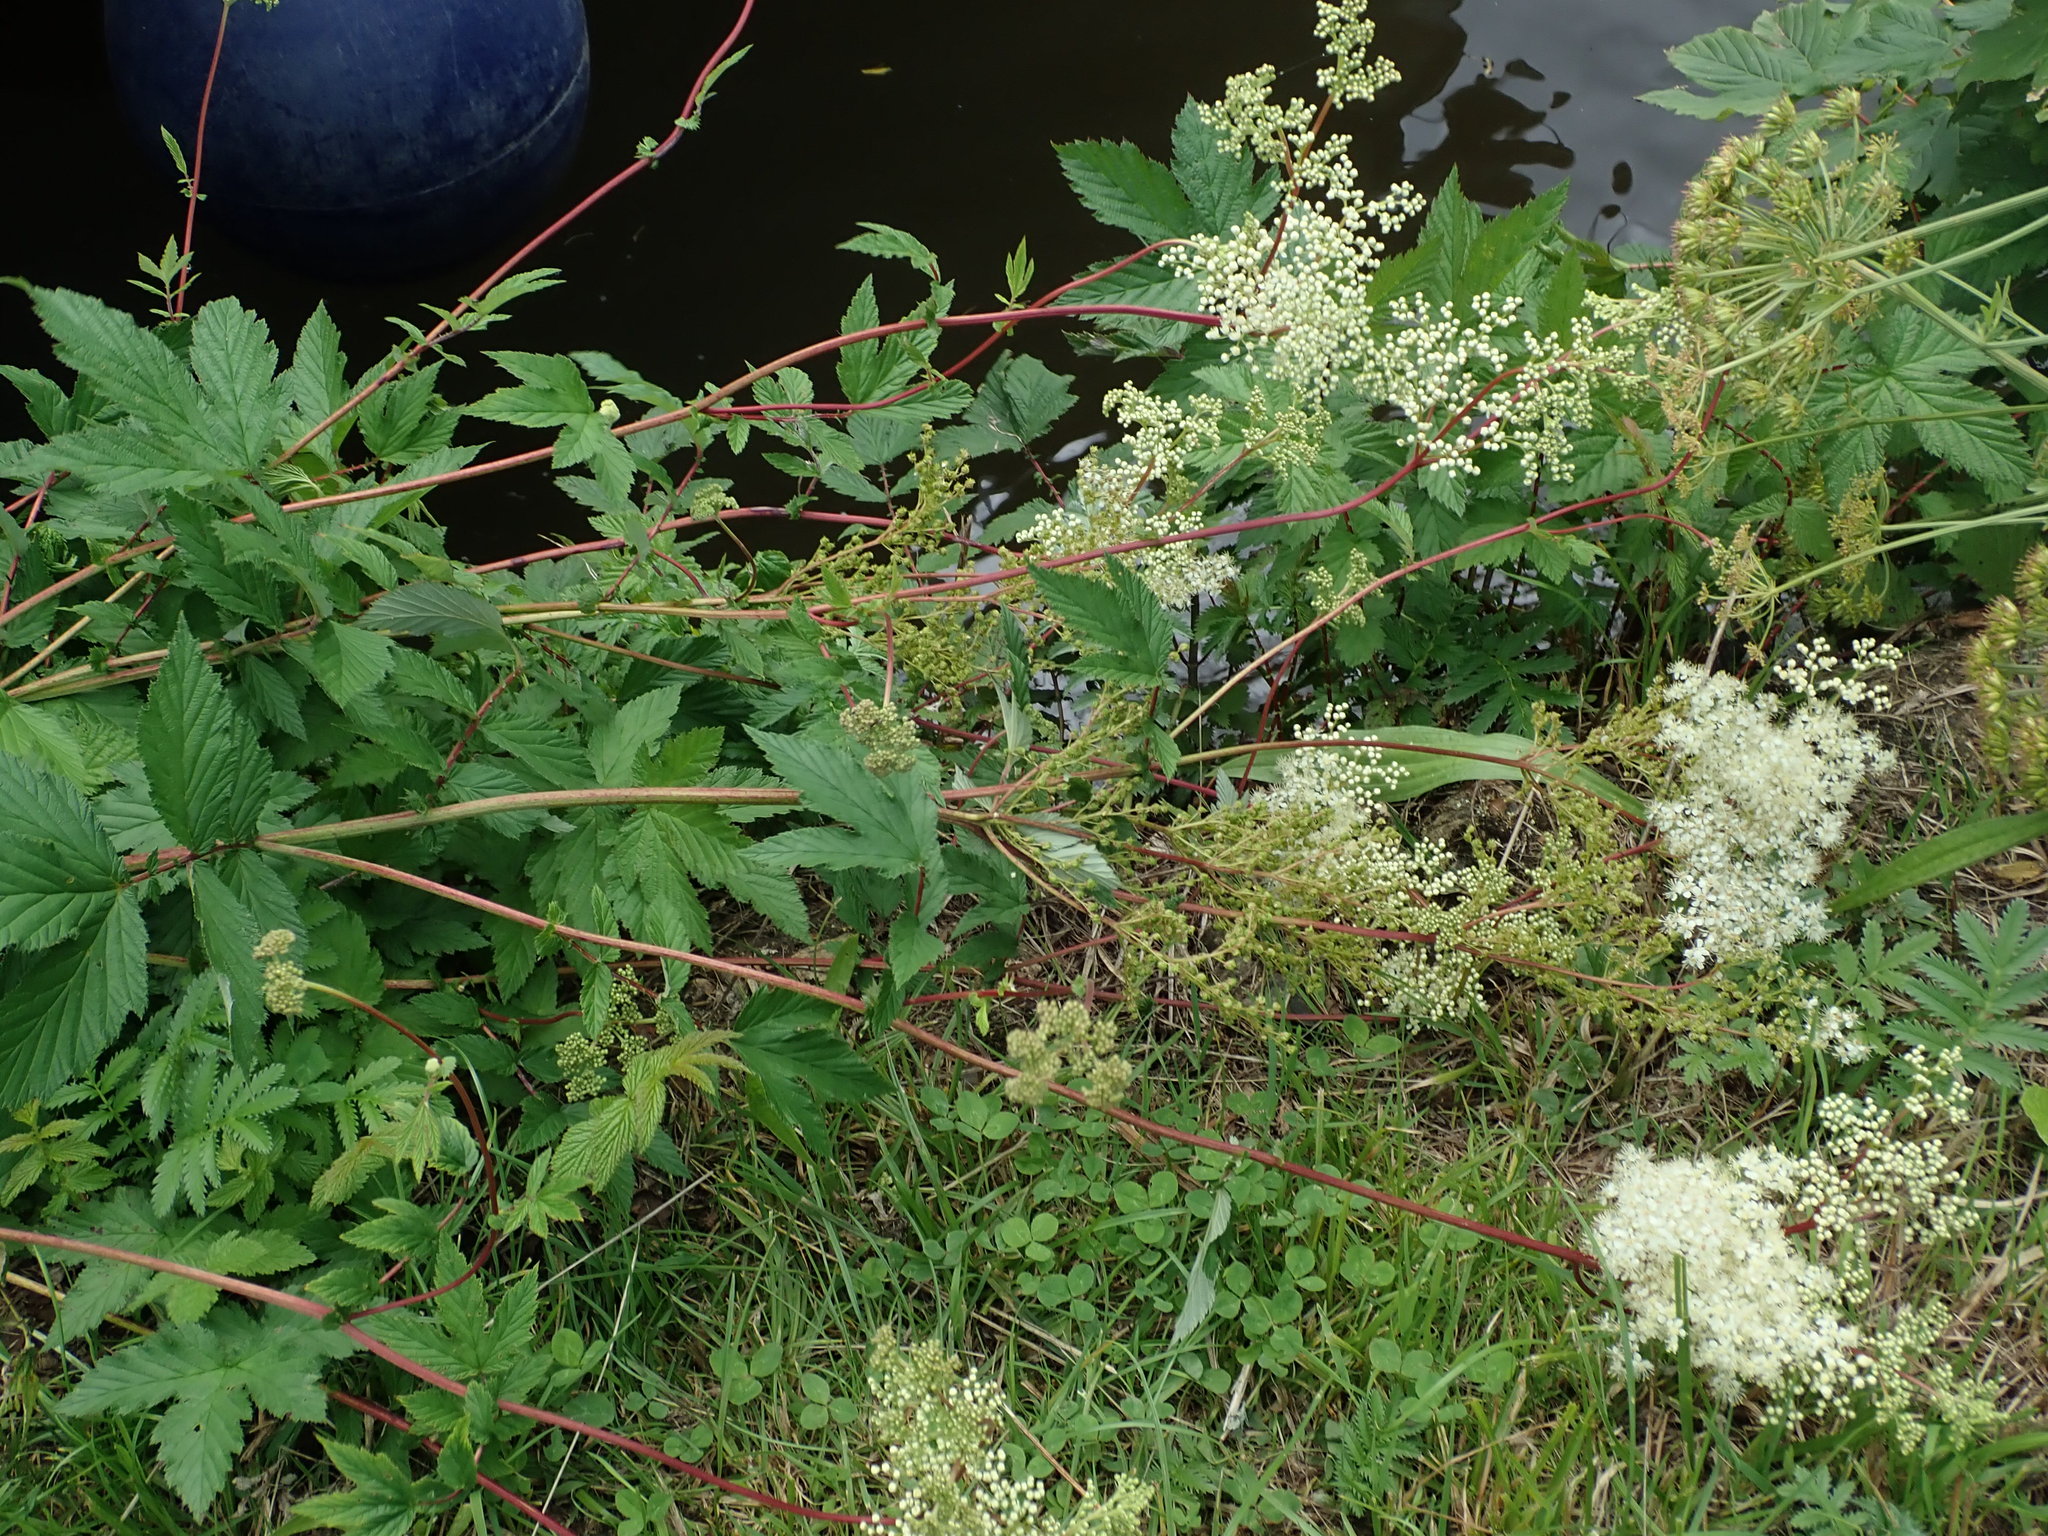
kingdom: Plantae
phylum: Tracheophyta
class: Magnoliopsida
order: Rosales
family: Rosaceae
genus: Filipendula
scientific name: Filipendula ulmaria
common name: Meadowsweet
